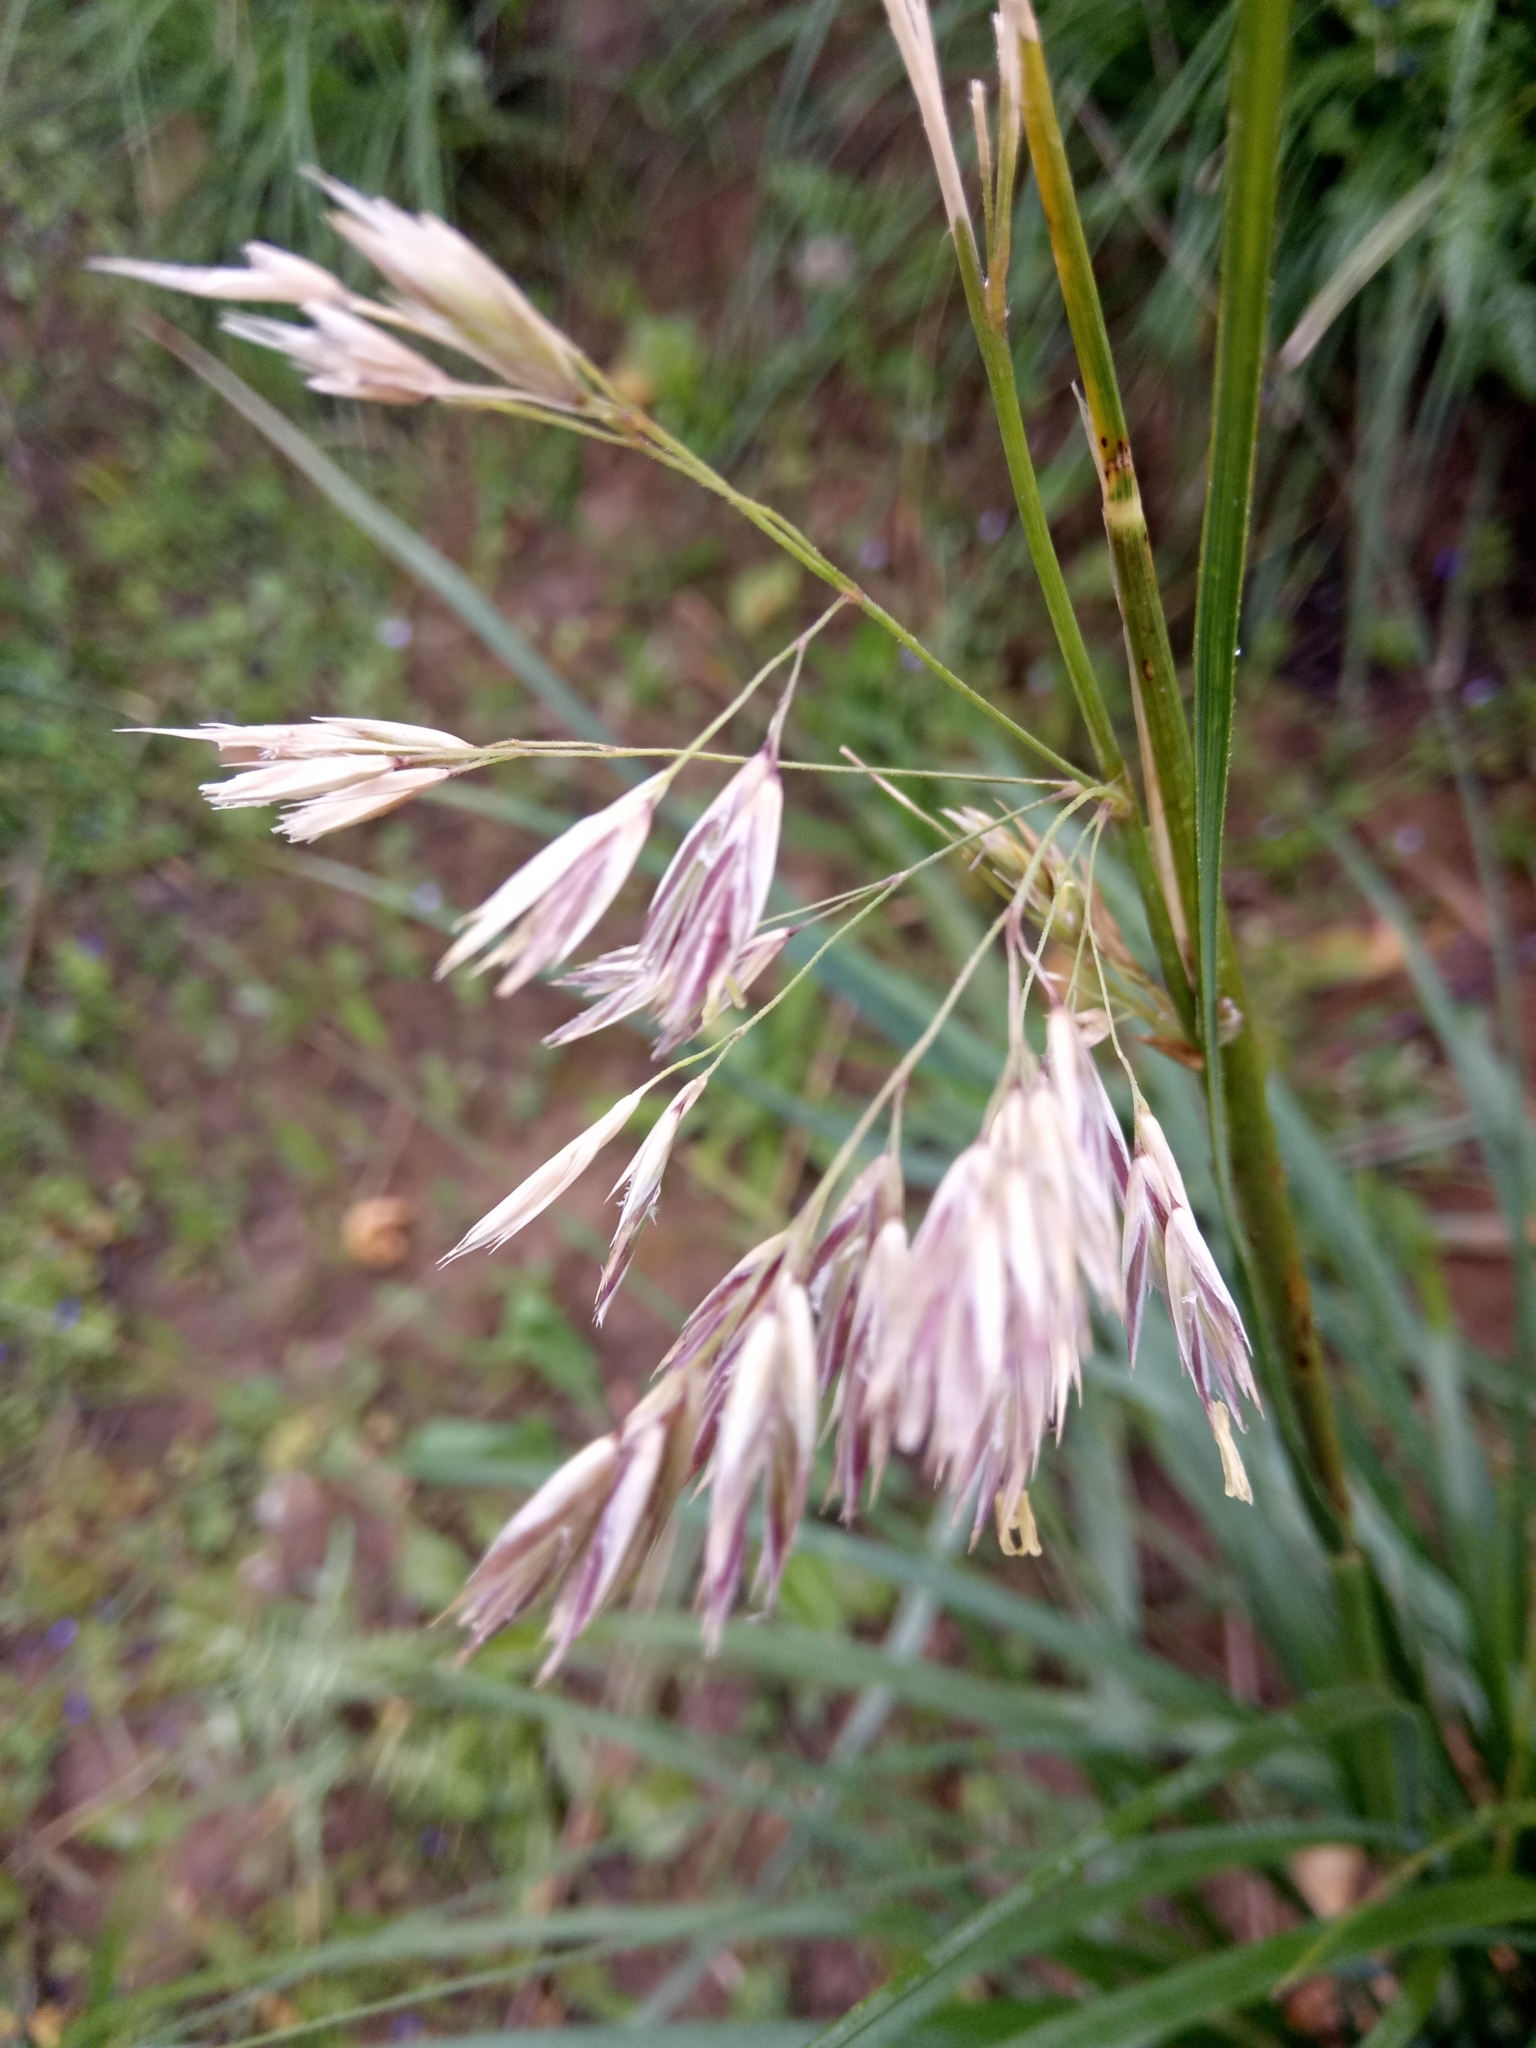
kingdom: Plantae
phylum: Tracheophyta
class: Liliopsida
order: Poales
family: Poaceae
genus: Bromus
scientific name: Bromus inermis
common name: Smooth brome
